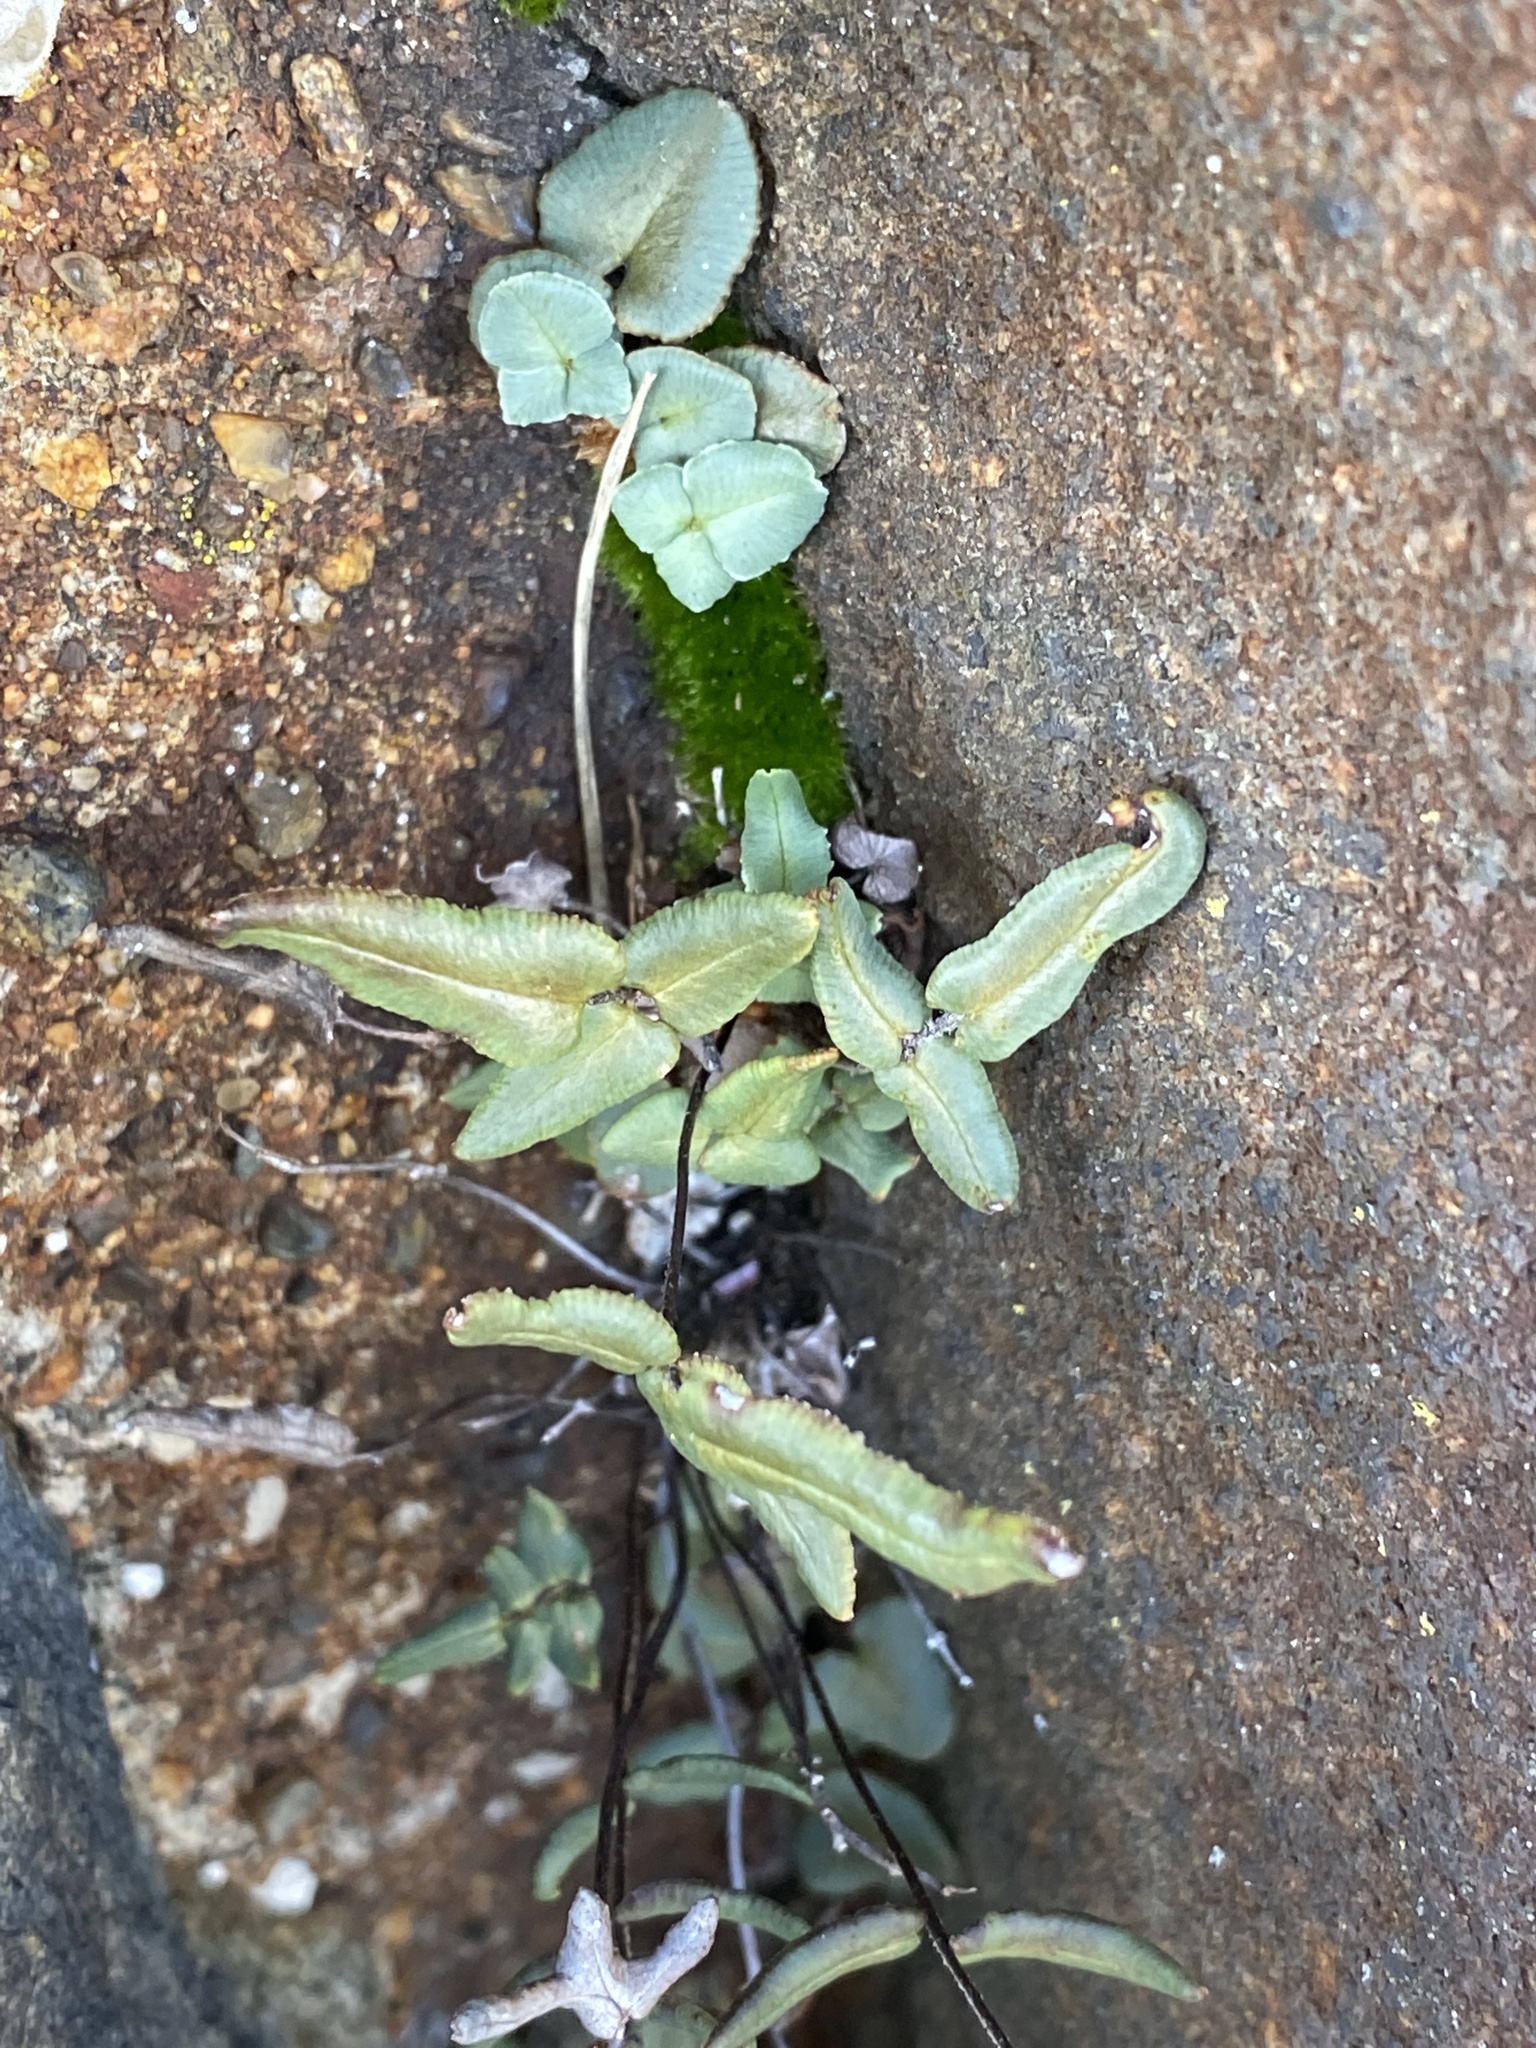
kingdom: Plantae
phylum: Tracheophyta
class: Polypodiopsida
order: Polypodiales
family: Pteridaceae
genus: Pellaea
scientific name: Pellaea atropurpurea
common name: Hairy cliffbrake
